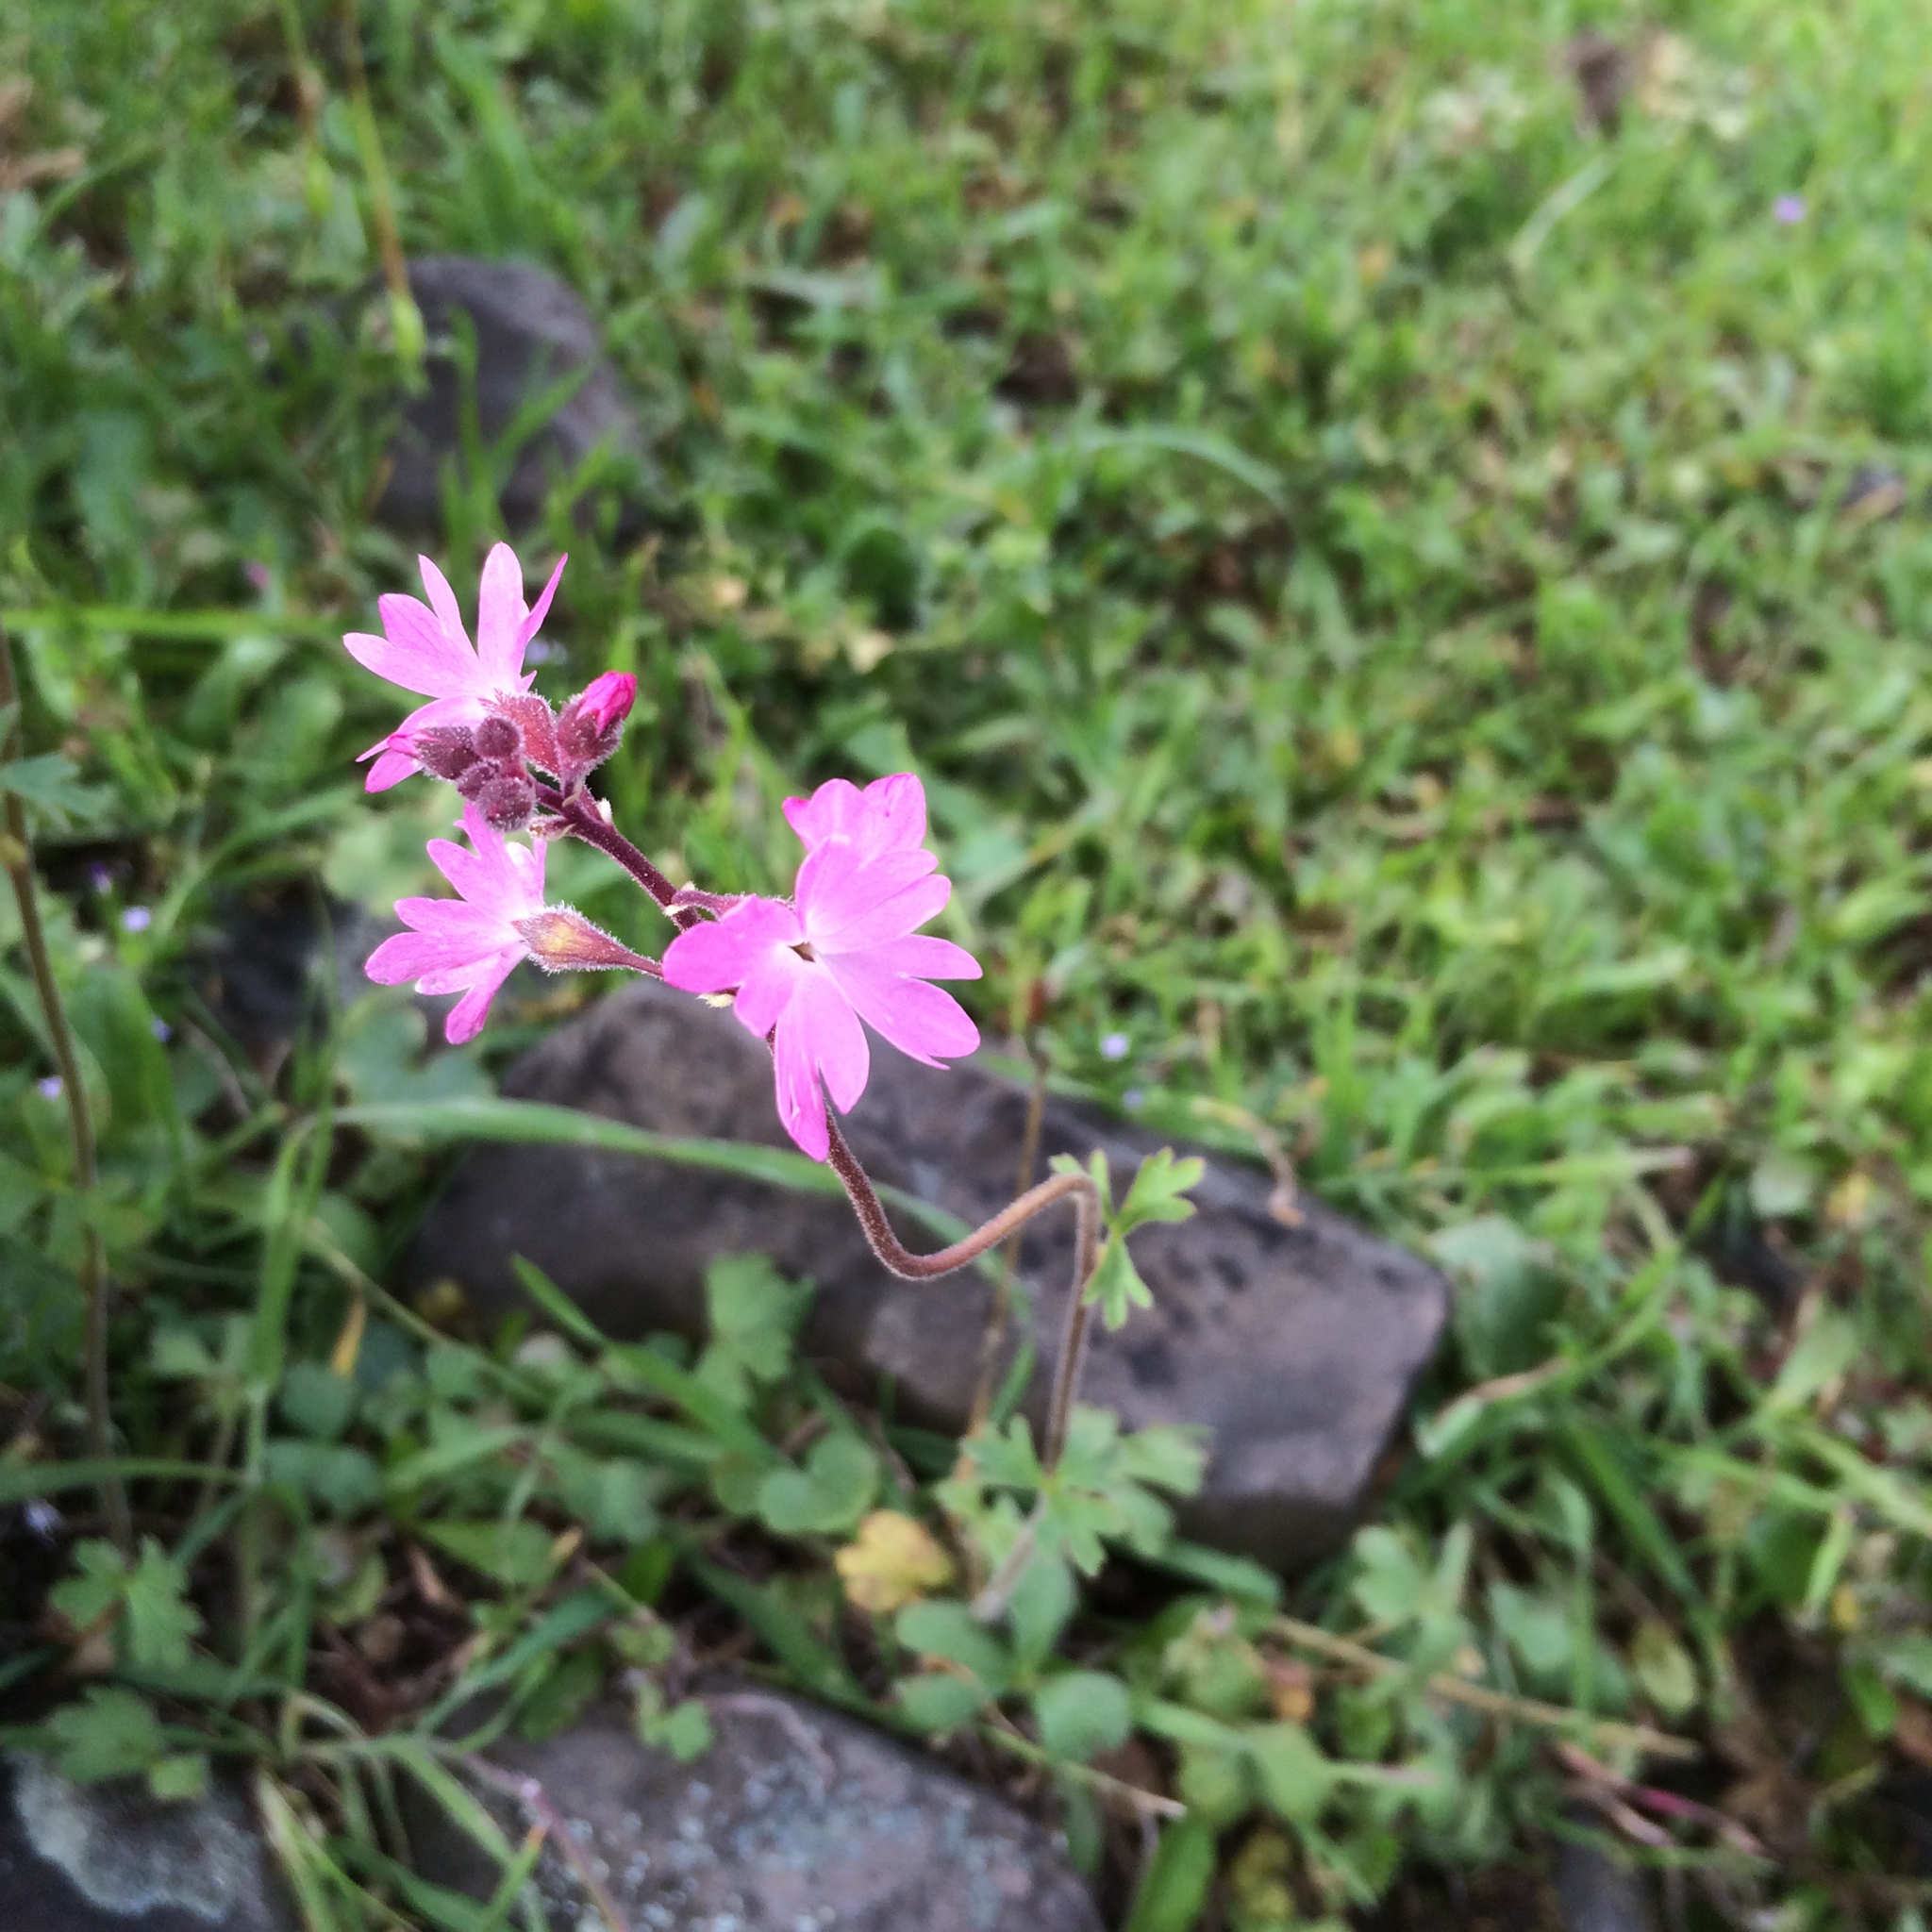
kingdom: Plantae
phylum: Tracheophyta
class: Magnoliopsida
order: Saxifragales
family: Saxifragaceae
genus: Lithophragma
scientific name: Lithophragma trifoliatum
